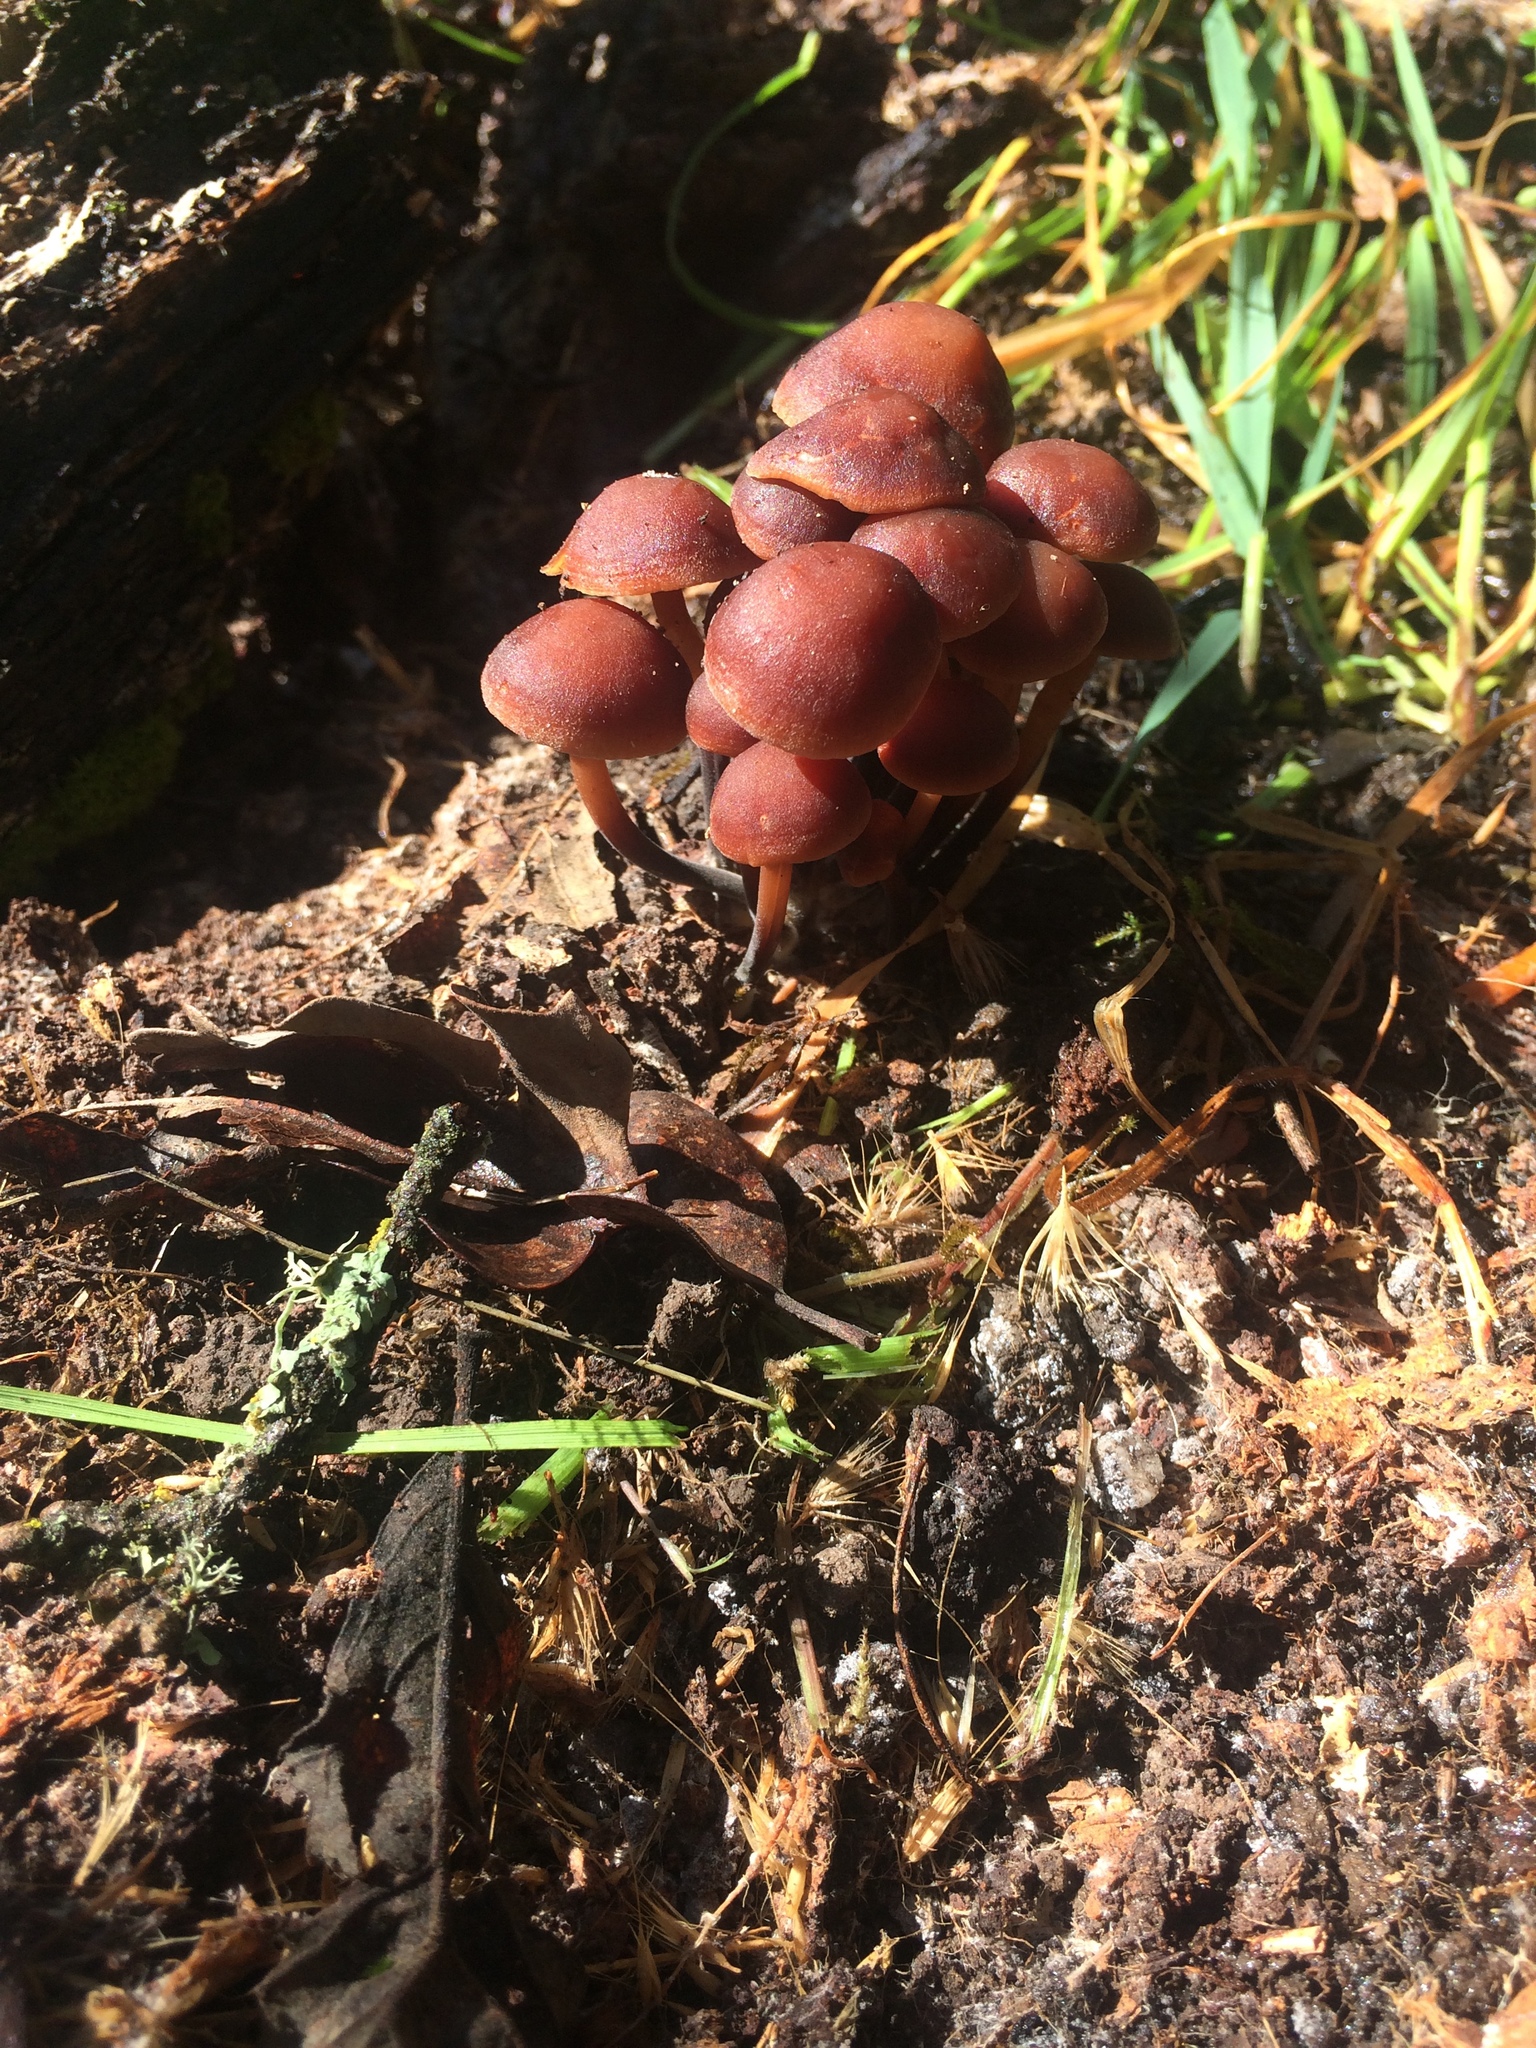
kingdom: Fungi
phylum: Basidiomycota
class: Agaricomycetes
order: Agaricales
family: Omphalotaceae
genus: Gymnopus
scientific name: Gymnopus brassicolens
